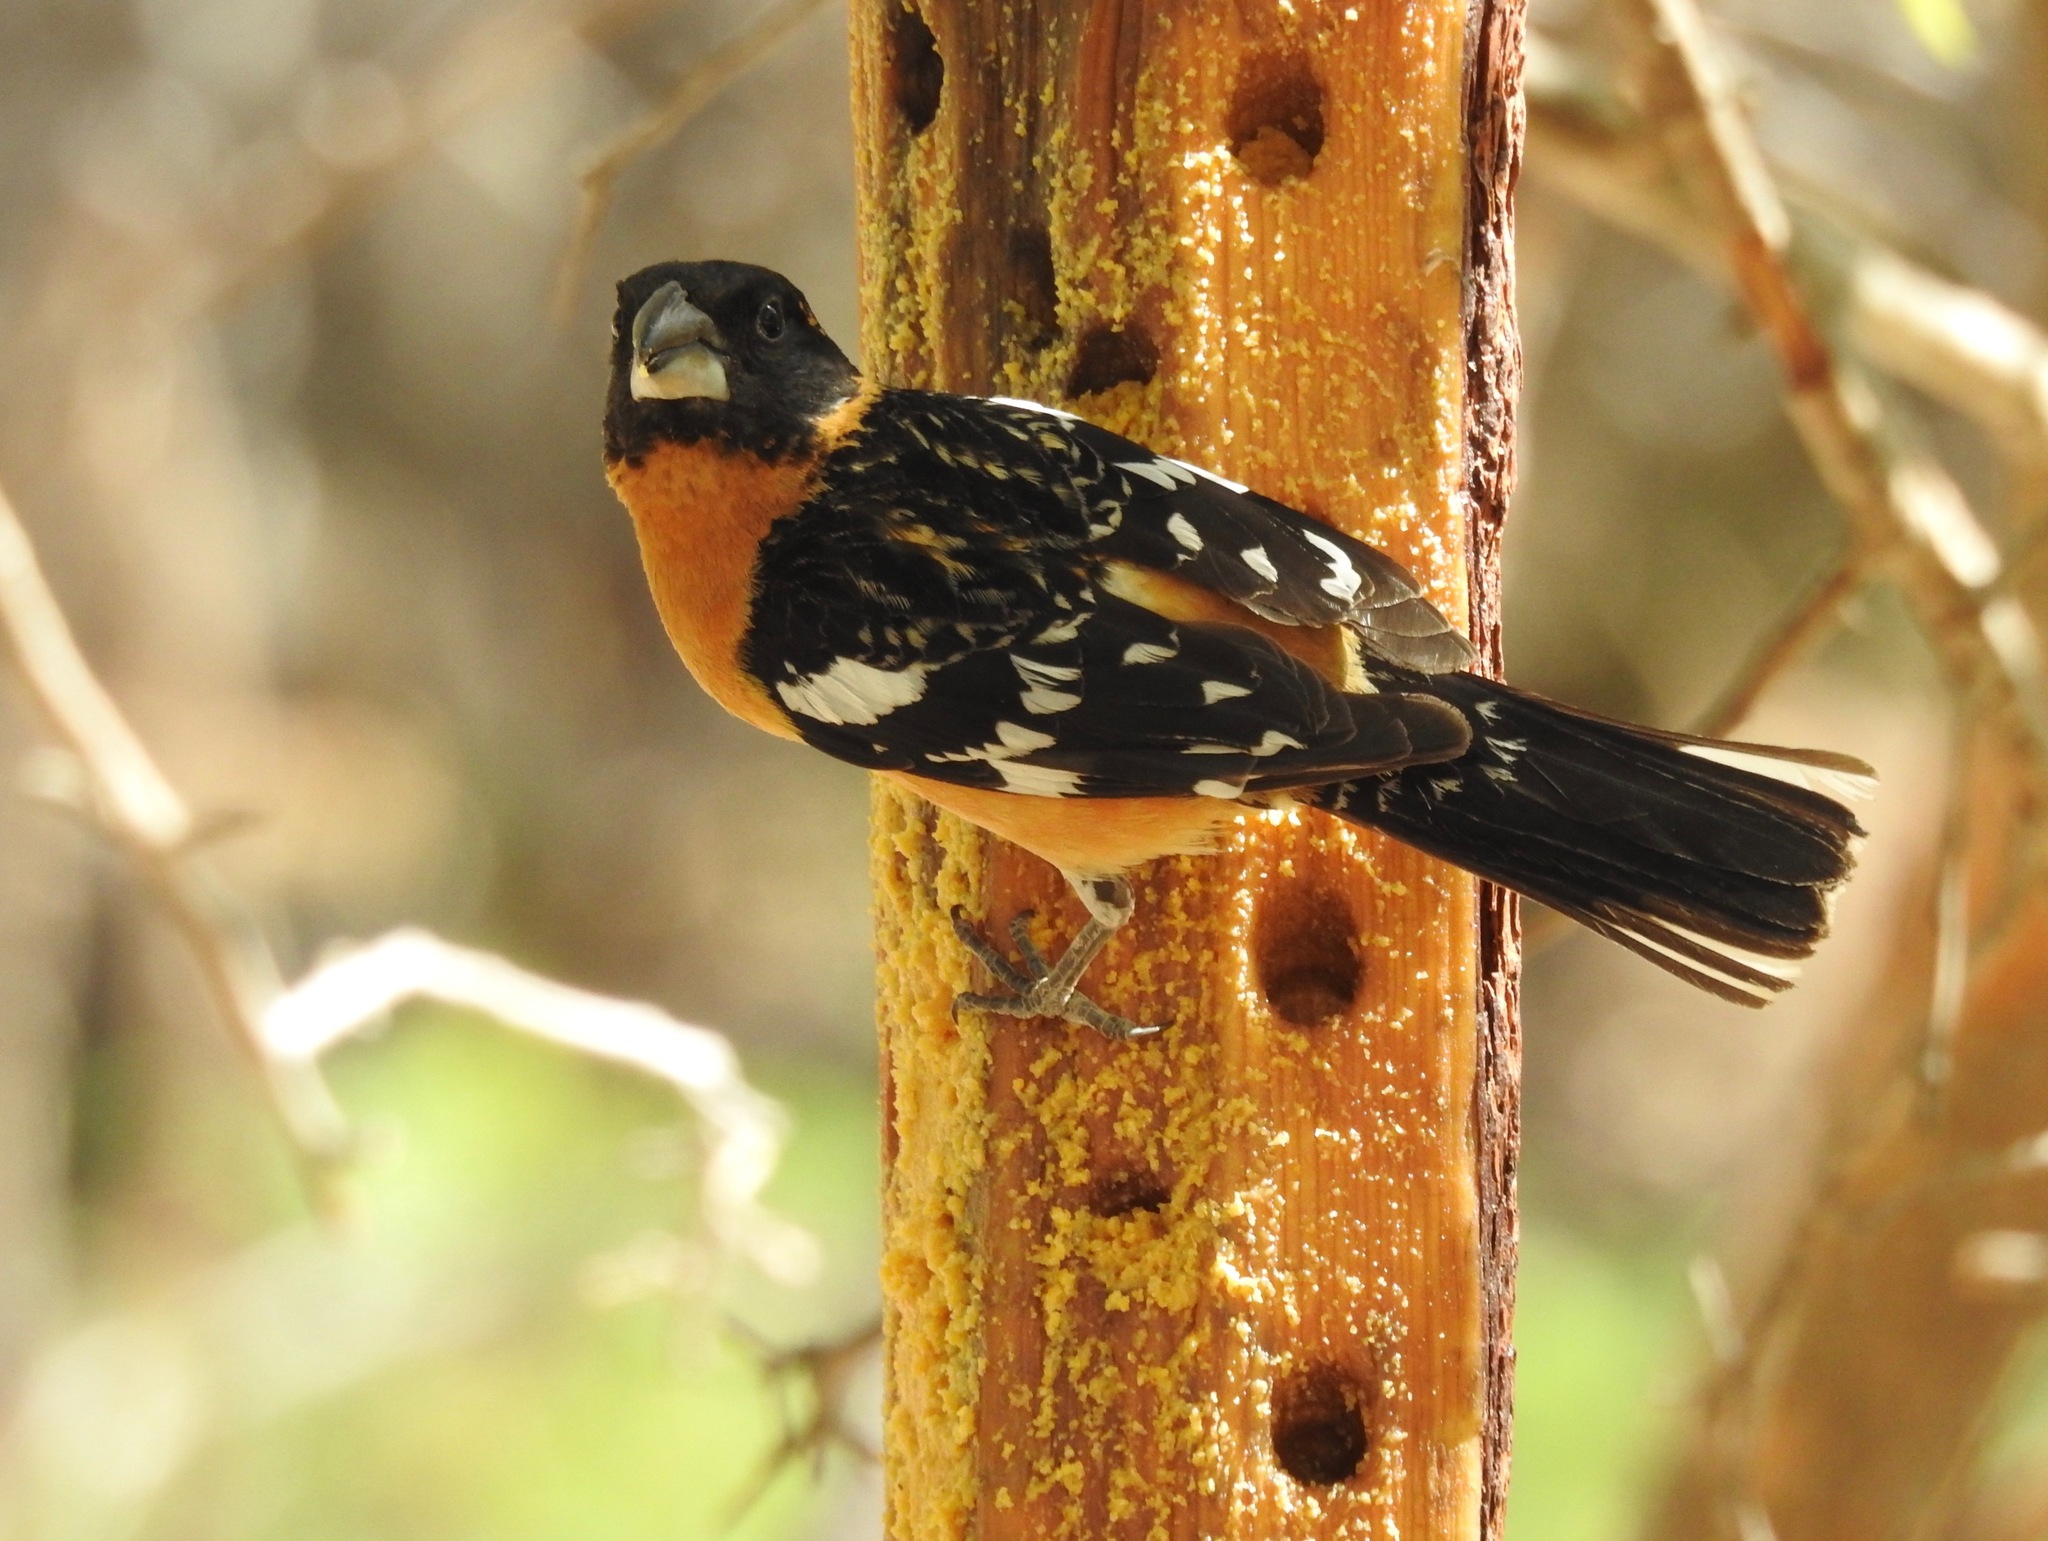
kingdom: Animalia
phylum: Chordata
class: Aves
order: Passeriformes
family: Cardinalidae
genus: Pheucticus
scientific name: Pheucticus melanocephalus
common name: Black-headed grosbeak
